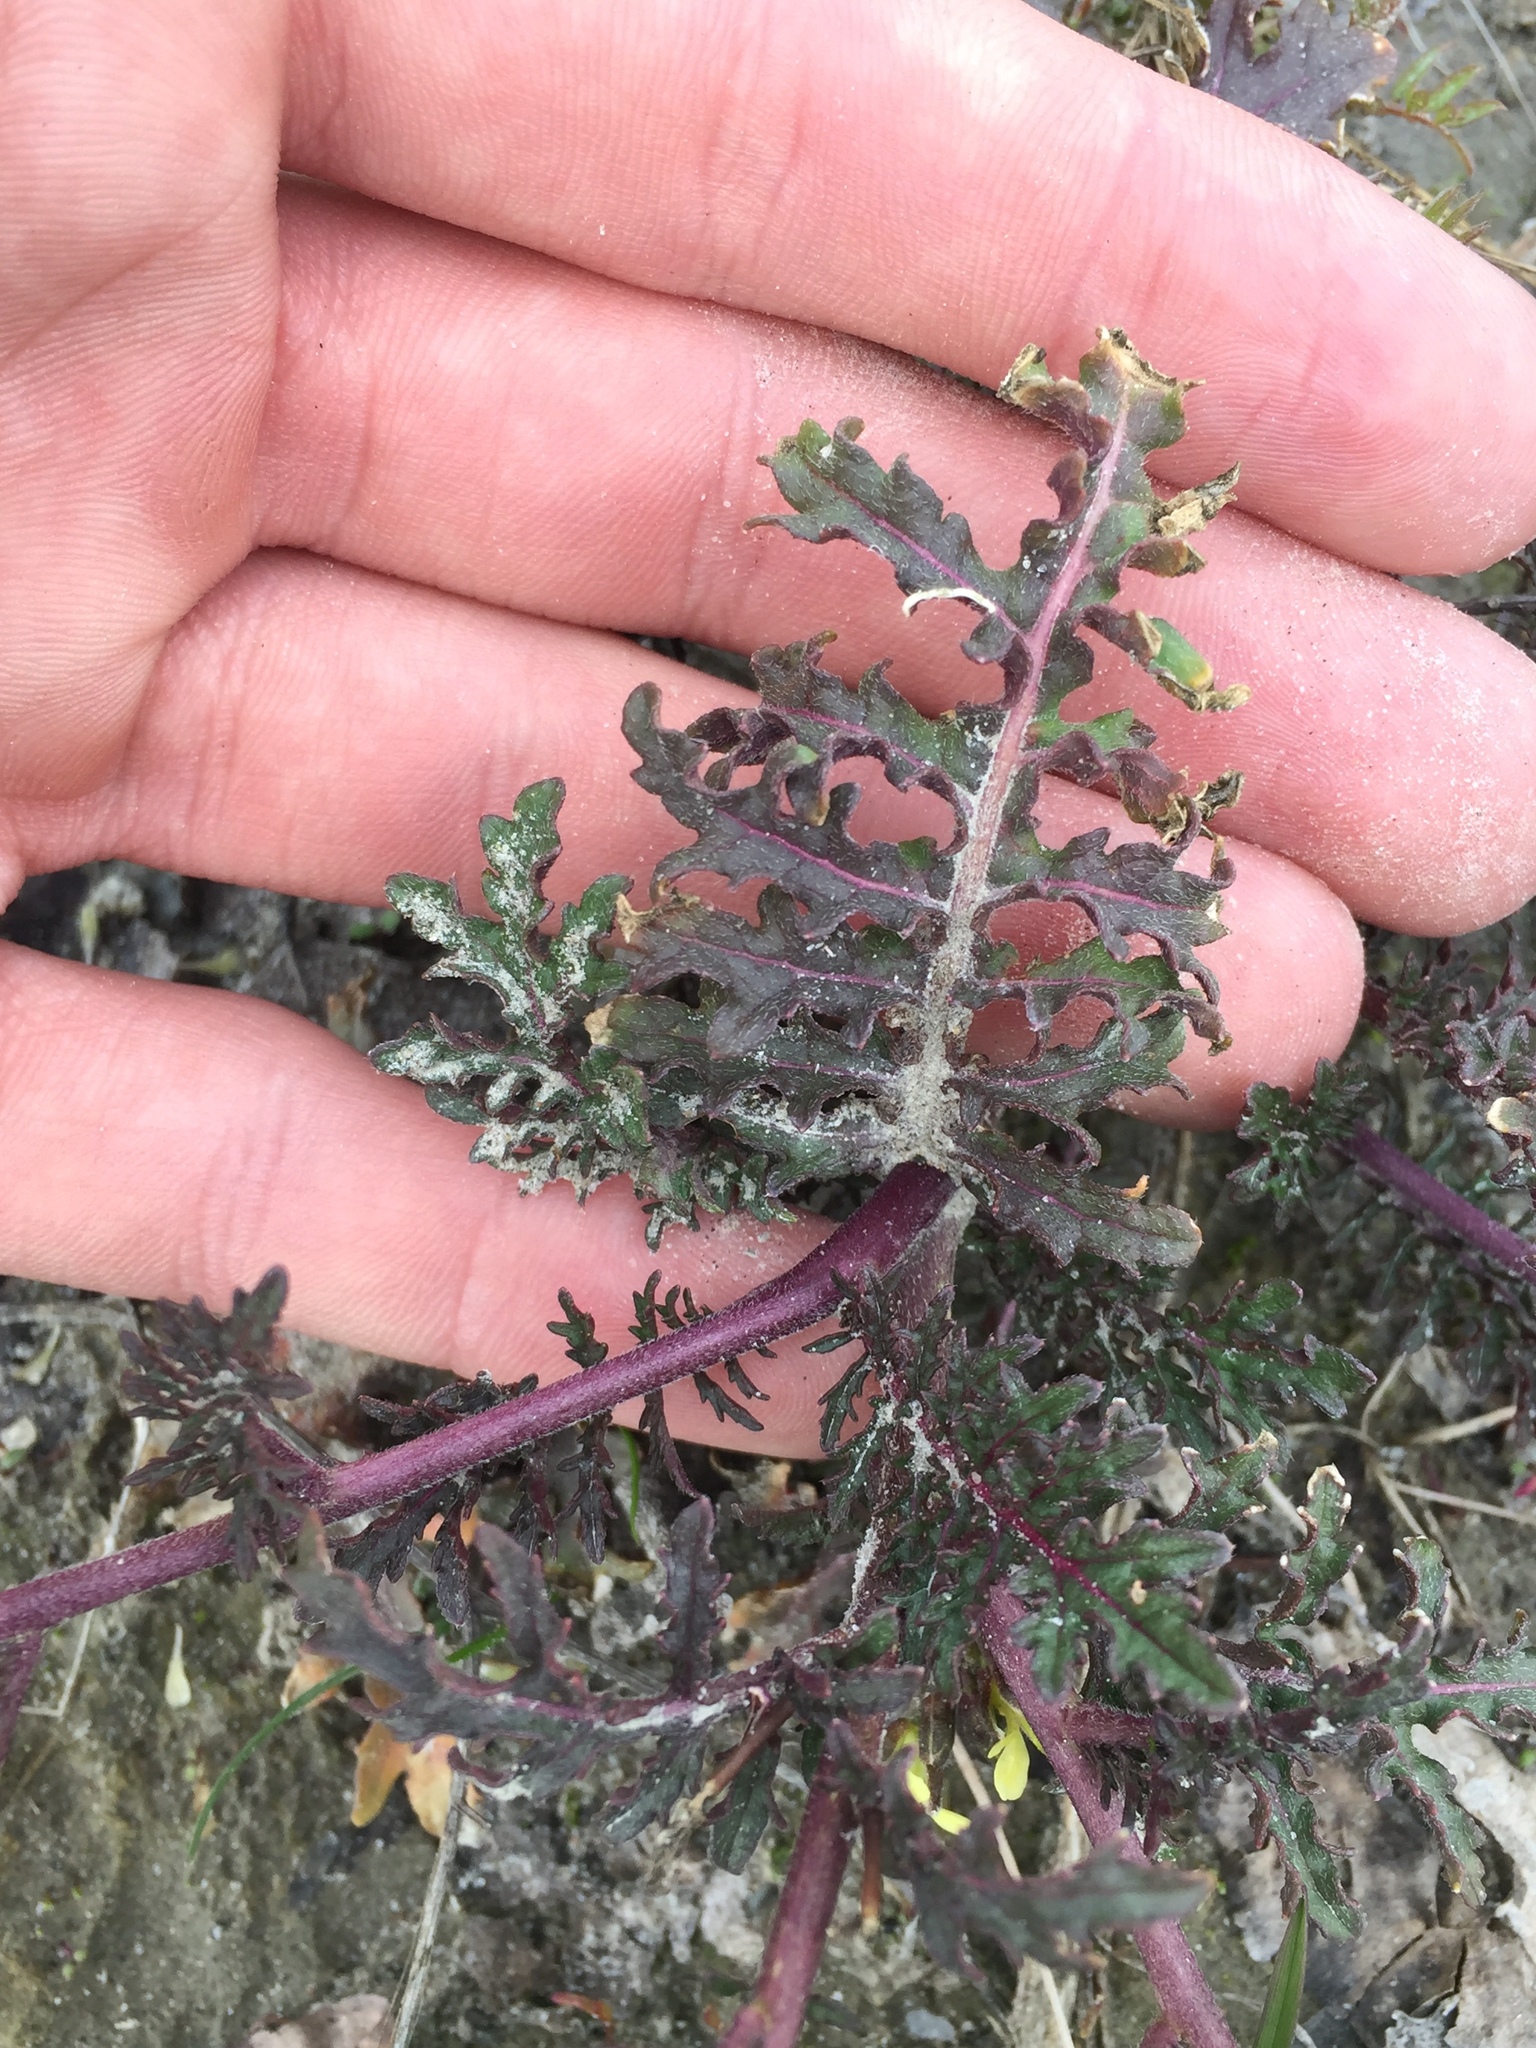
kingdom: Plantae
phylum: Tracheophyta
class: Magnoliopsida
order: Brassicales
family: Brassicaceae
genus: Erucastrum
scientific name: Erucastrum gallicum
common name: Hairy rocket
